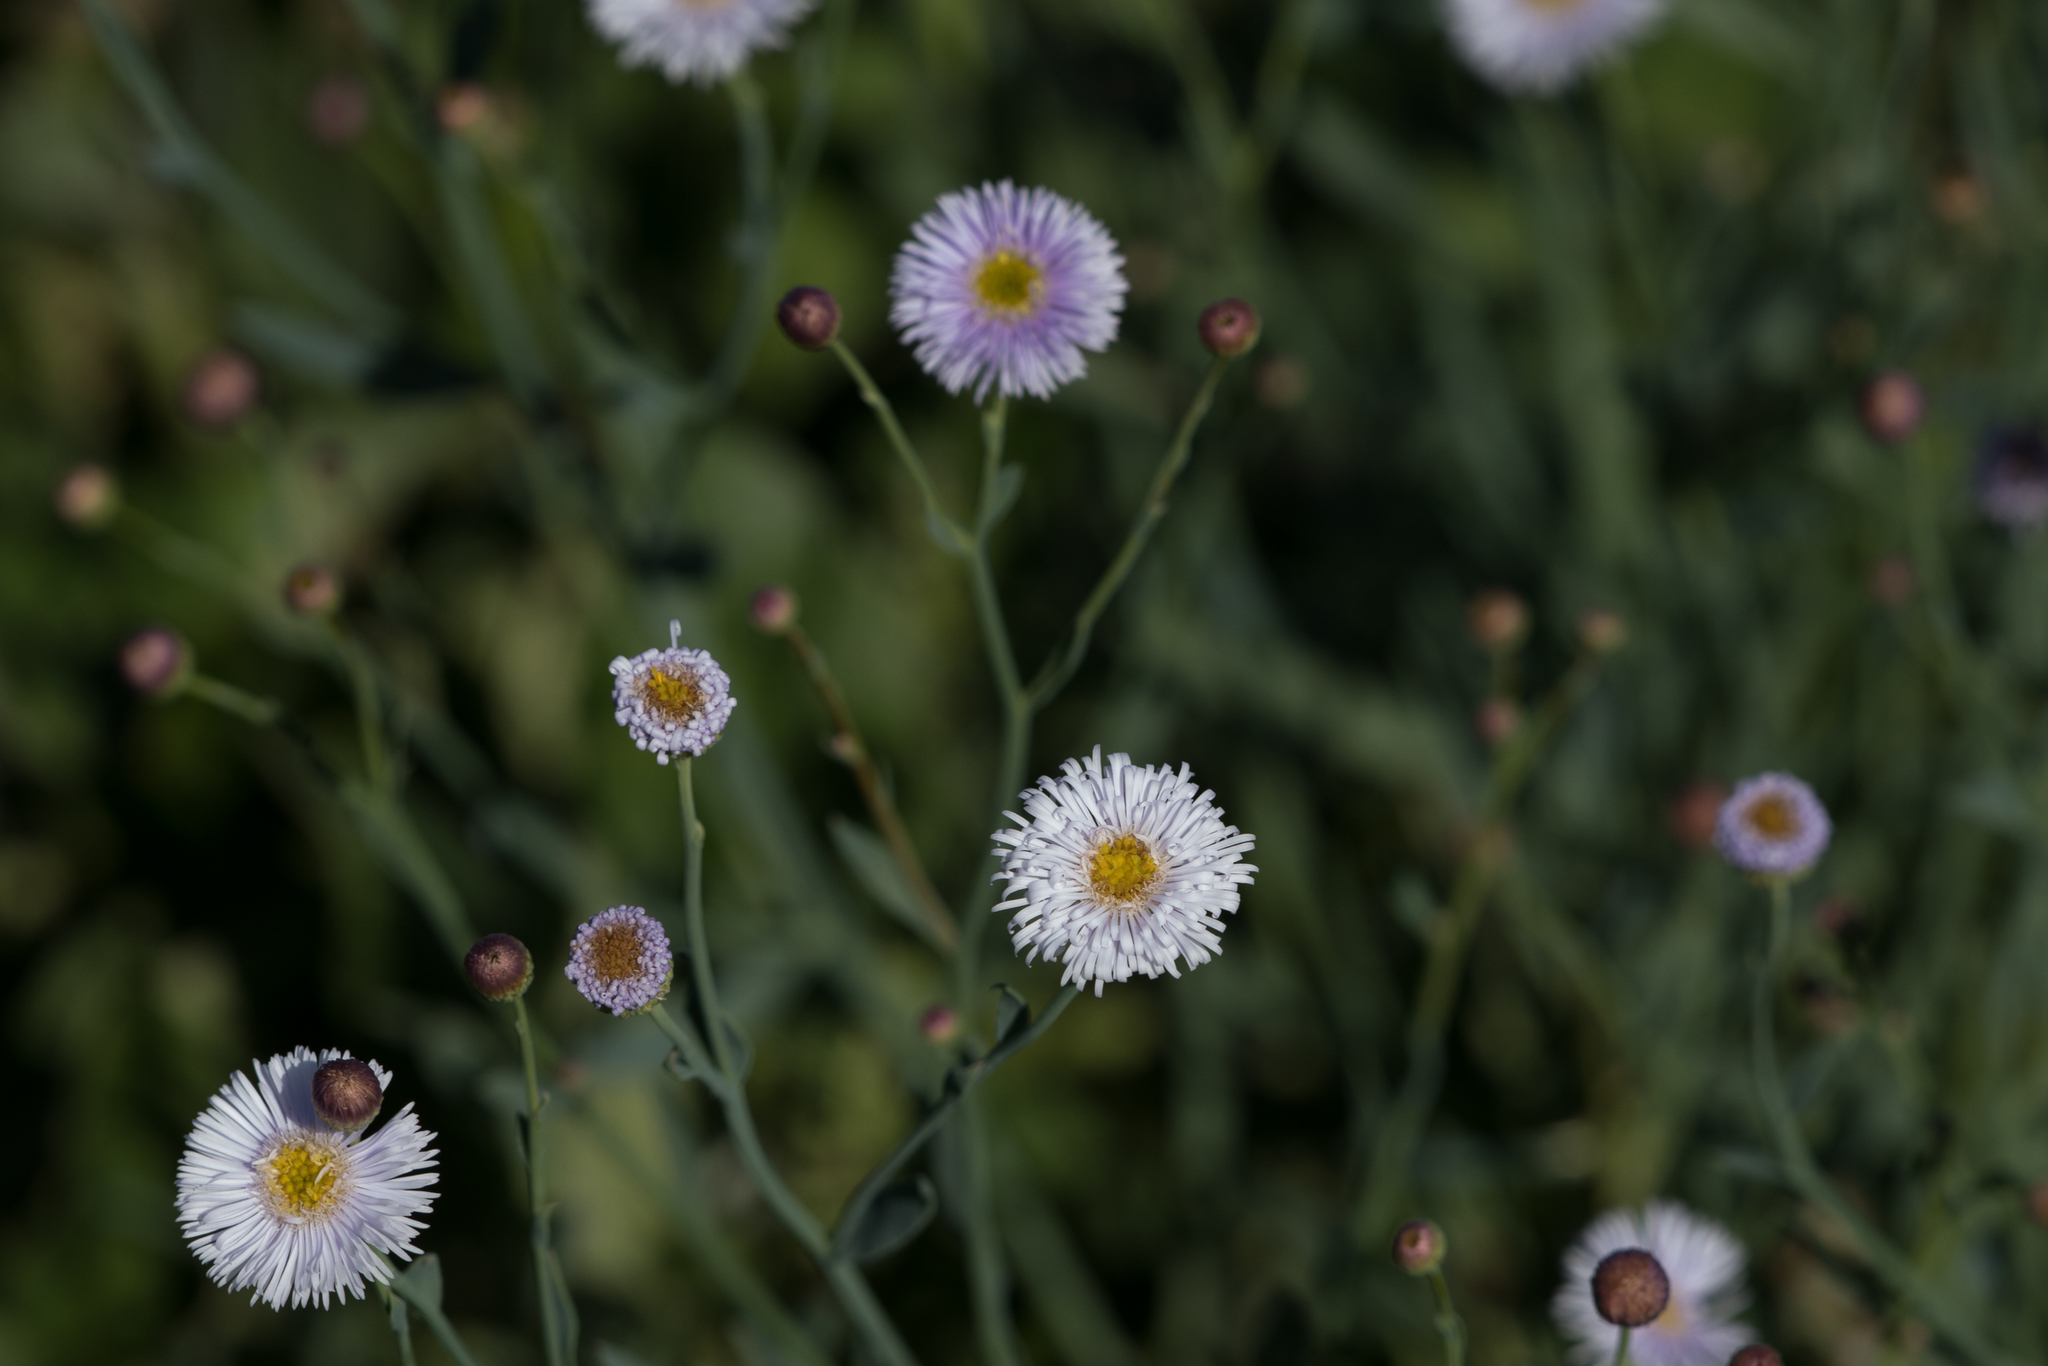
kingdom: Plantae
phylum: Tracheophyta
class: Magnoliopsida
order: Asterales
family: Asteraceae
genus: Minuria
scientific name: Minuria integerrima
